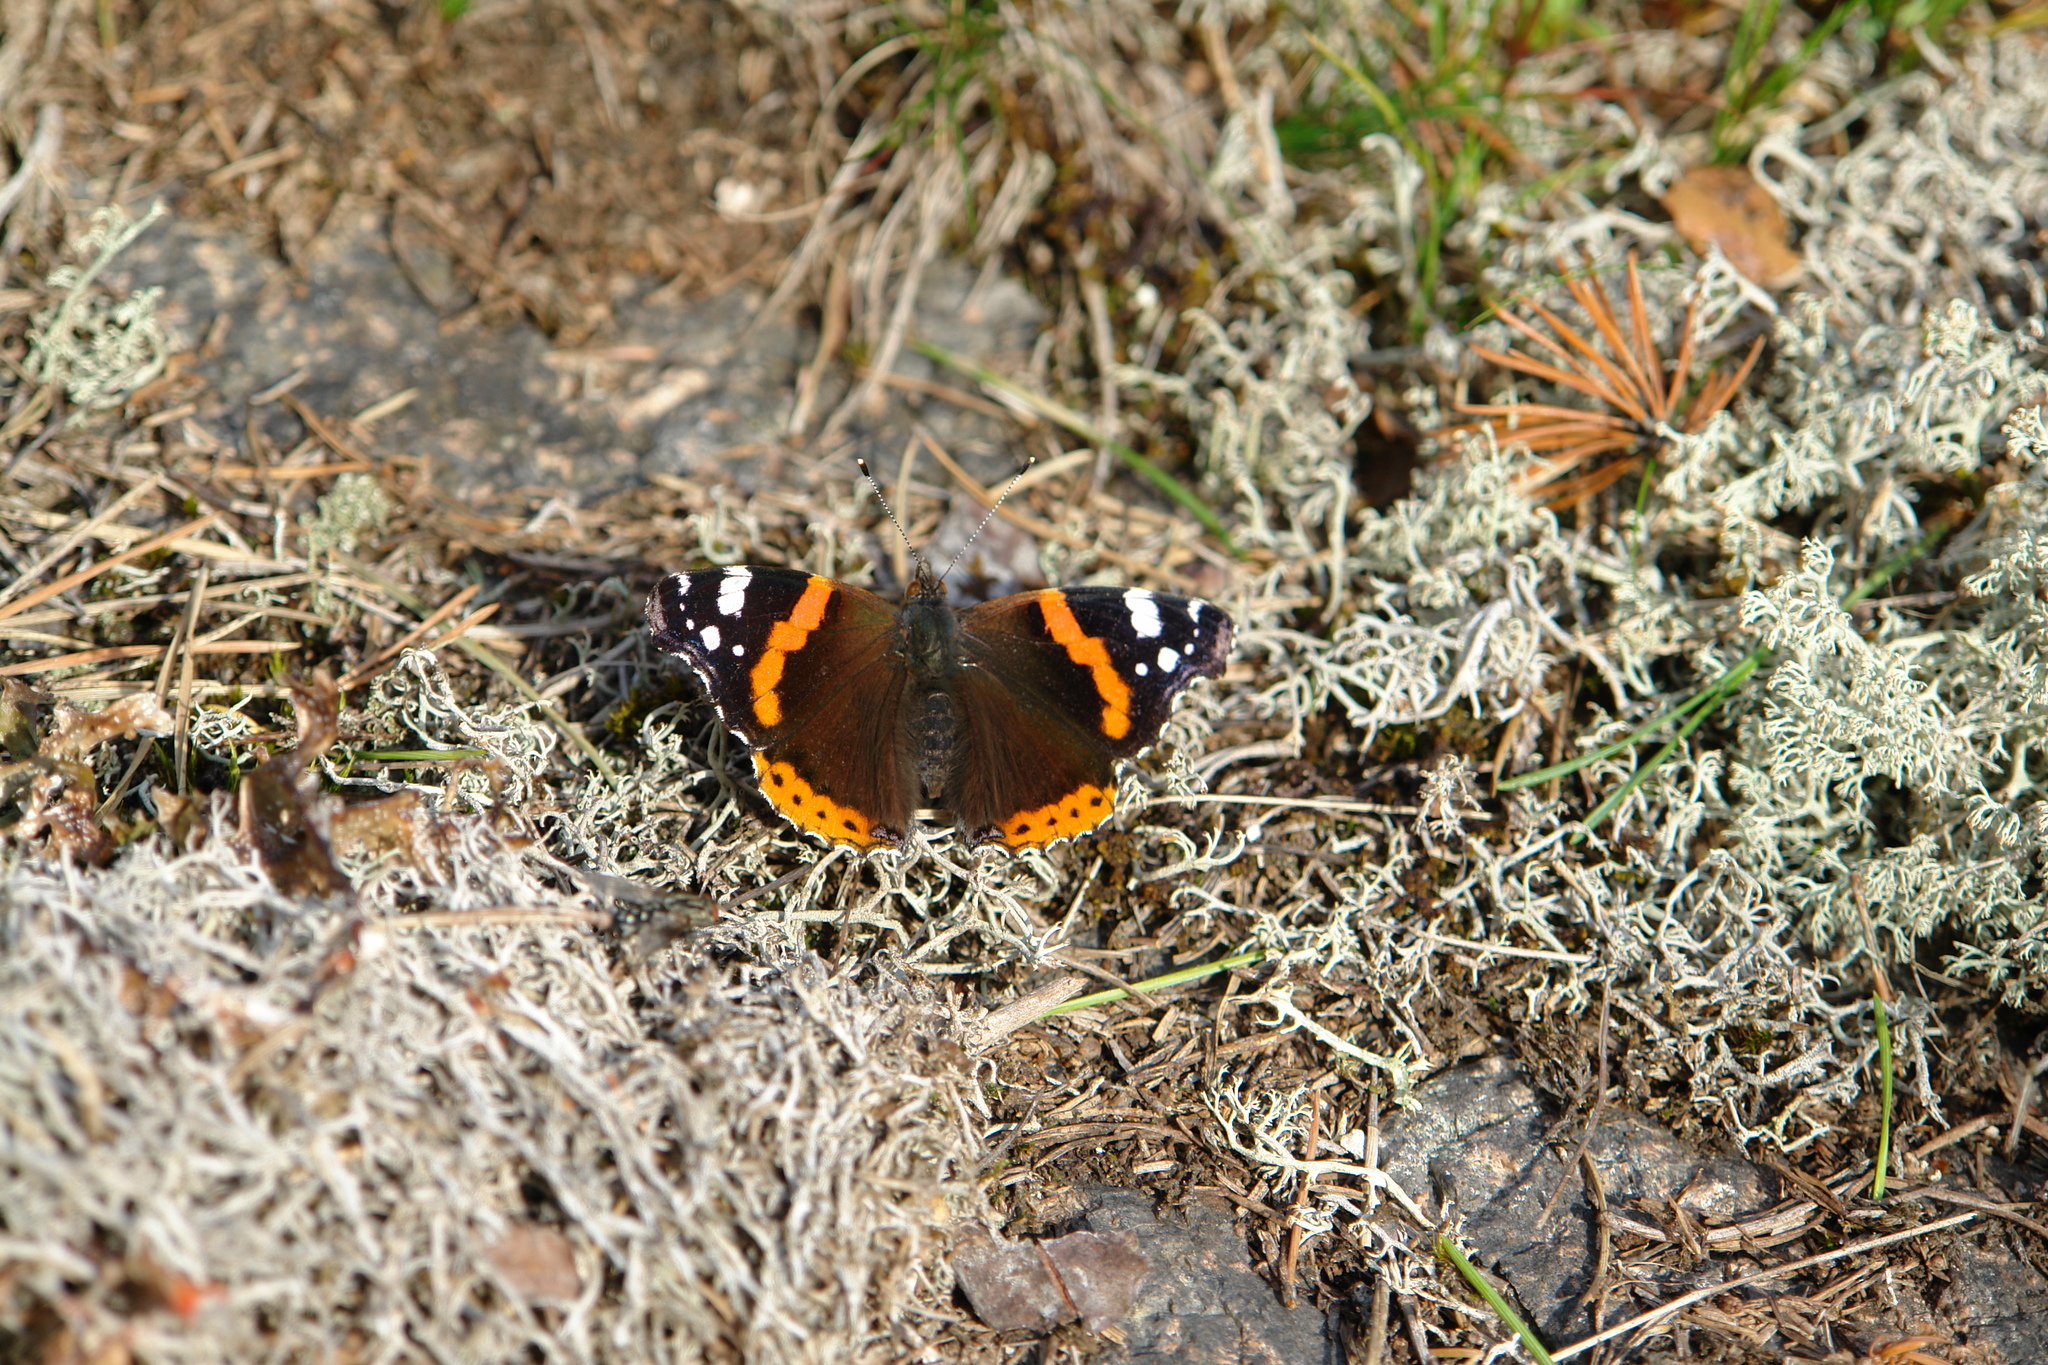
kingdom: Animalia
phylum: Arthropoda
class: Insecta
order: Lepidoptera
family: Nymphalidae
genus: Vanessa
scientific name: Vanessa atalanta
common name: Red admiral
